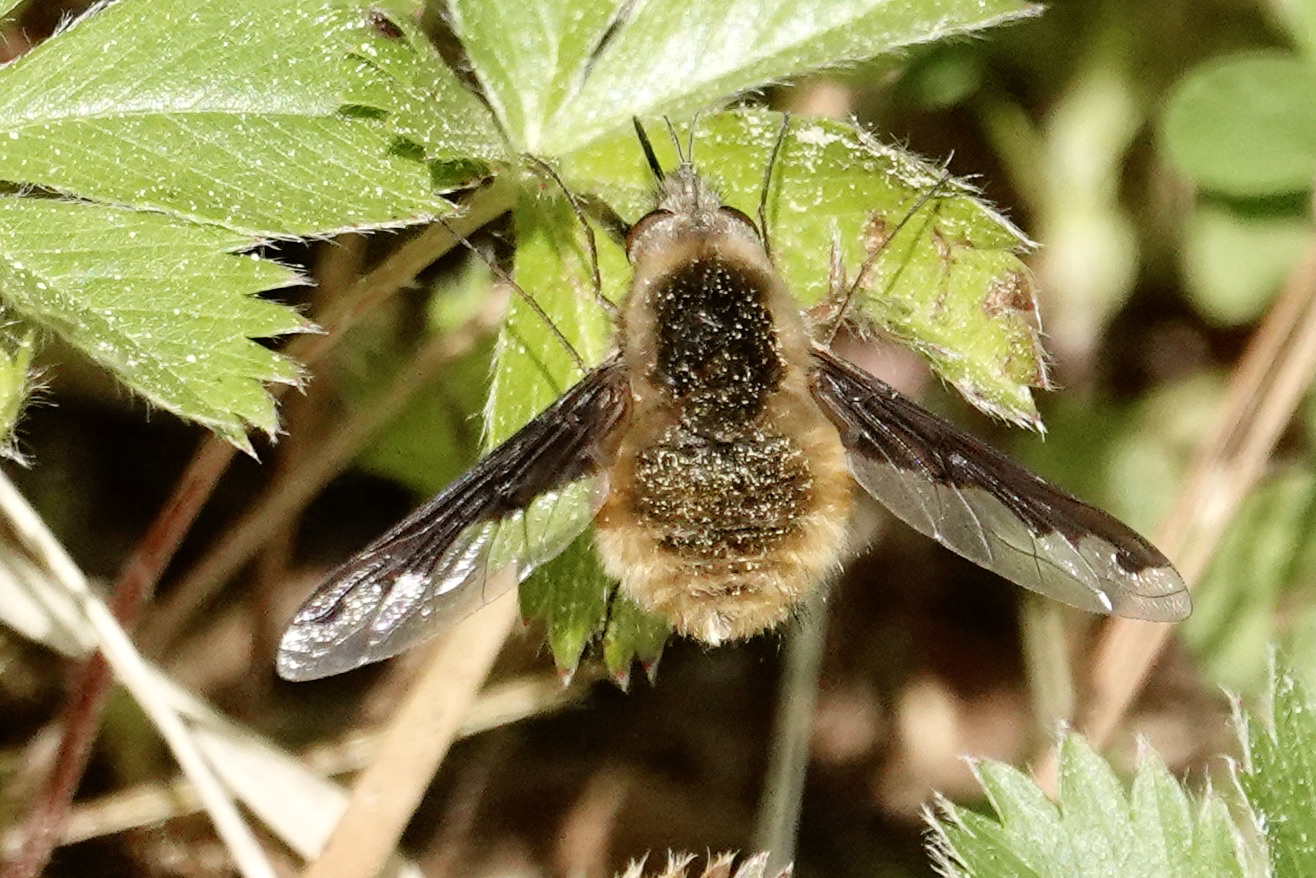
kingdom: Animalia
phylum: Arthropoda
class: Insecta
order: Diptera
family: Bombyliidae
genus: Bombylius
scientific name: Bombylius major
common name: Bee fly
